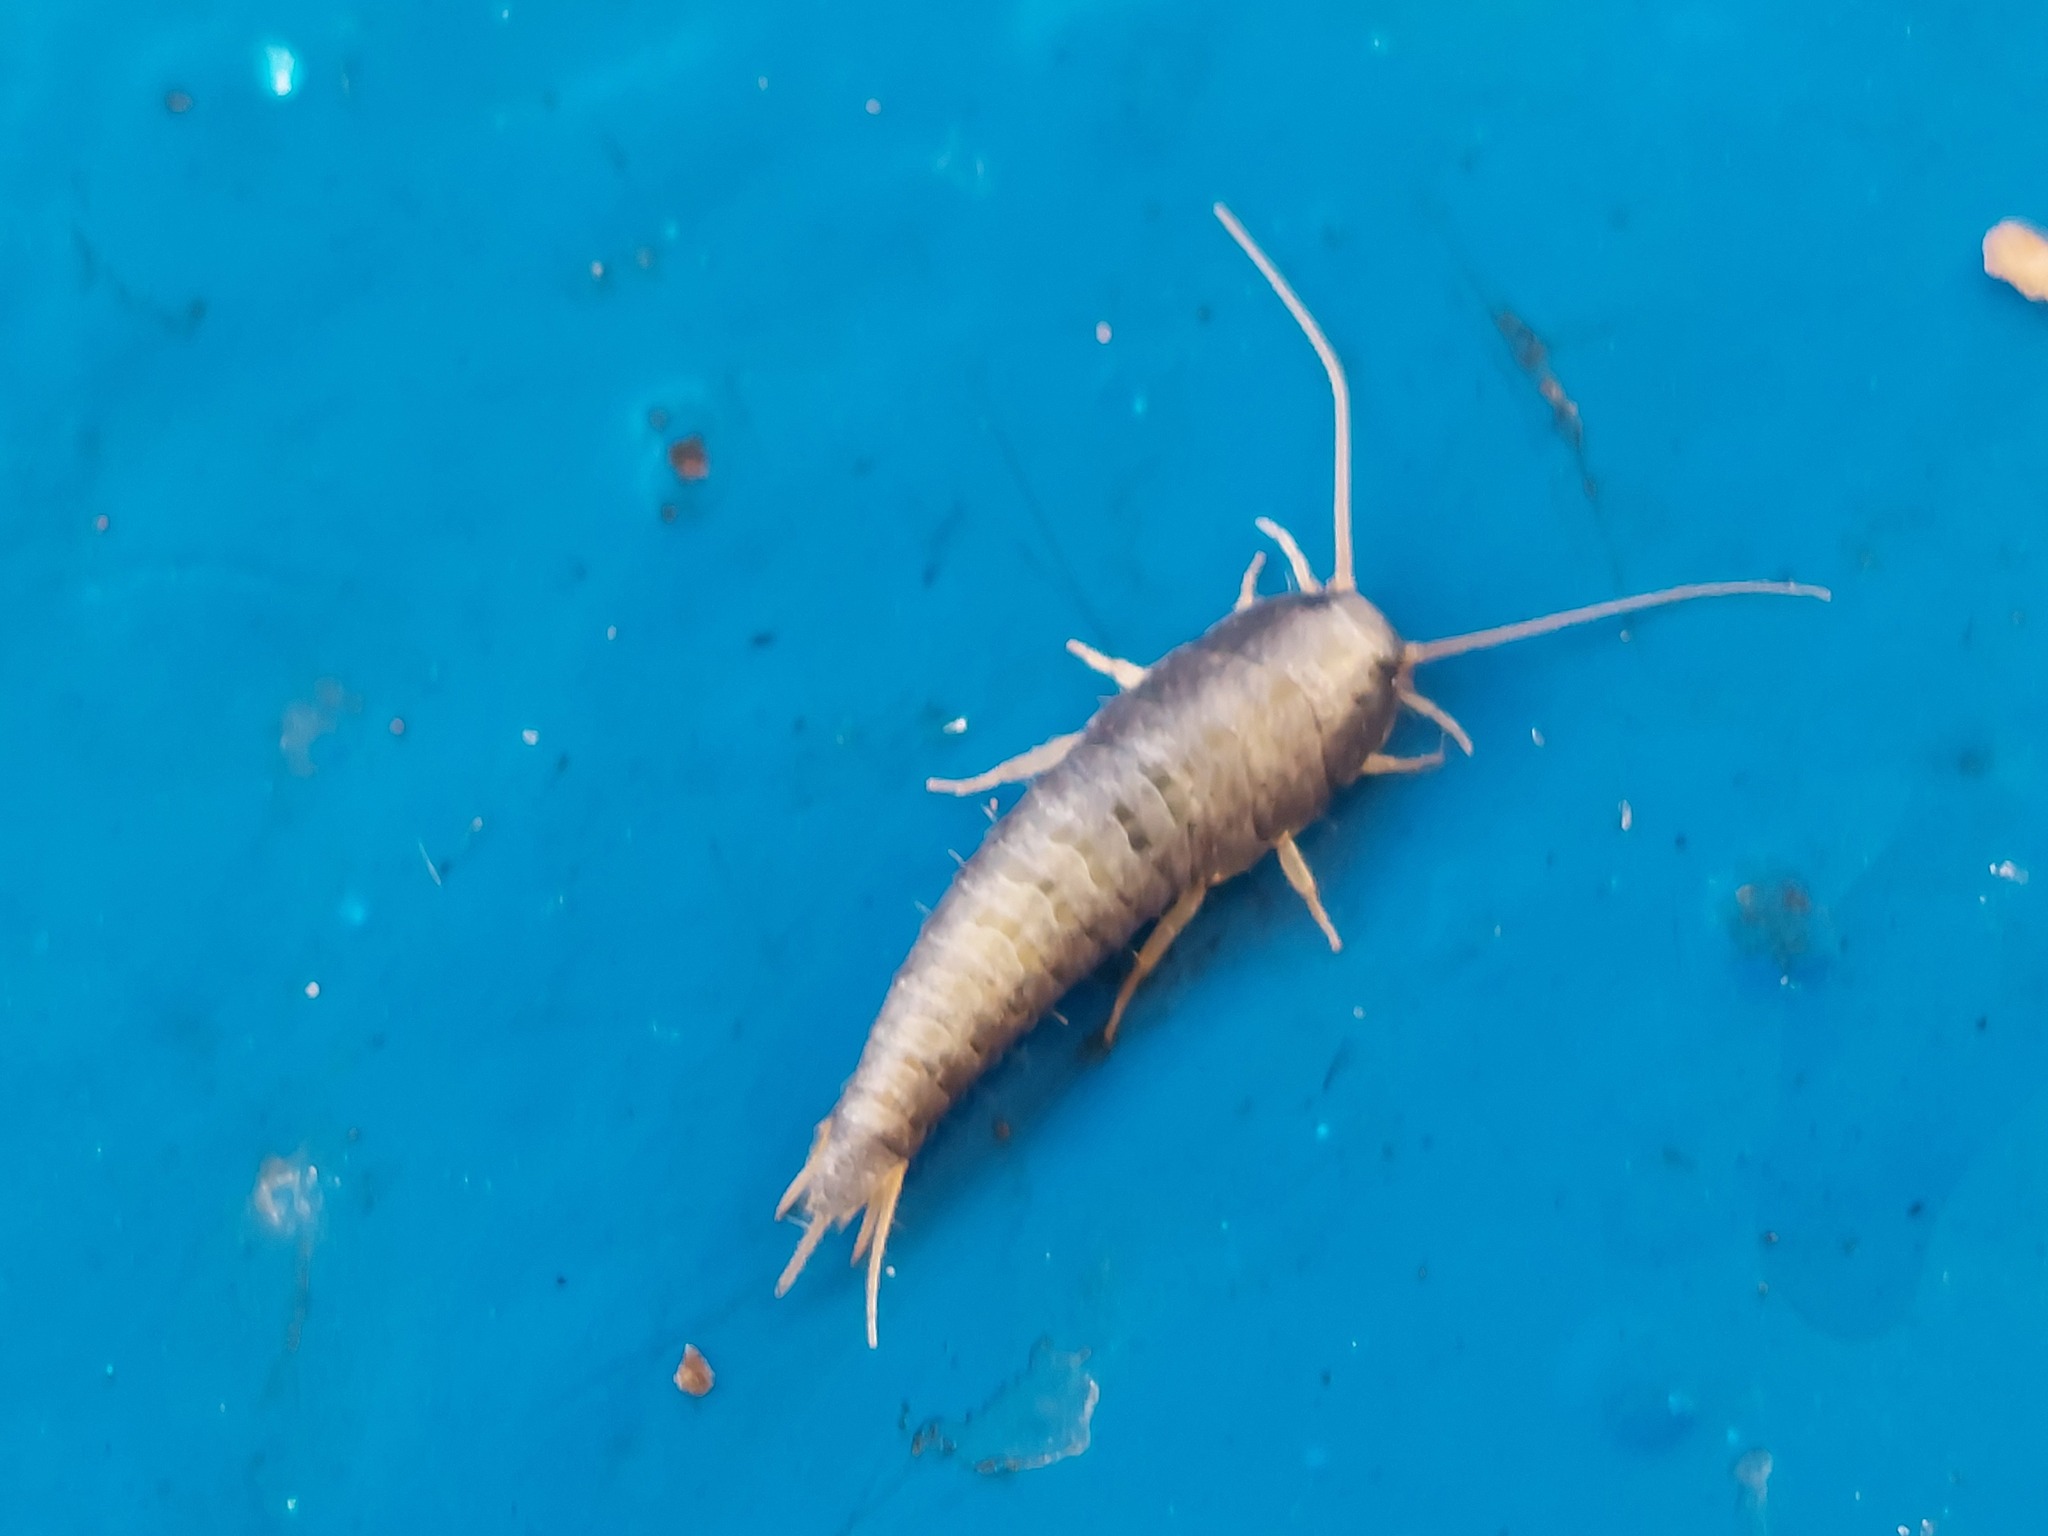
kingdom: Animalia
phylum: Arthropoda
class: Insecta
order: Zygentoma
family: Lepismatidae
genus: Lepisma
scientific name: Lepisma saccharinum
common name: Silverfish
